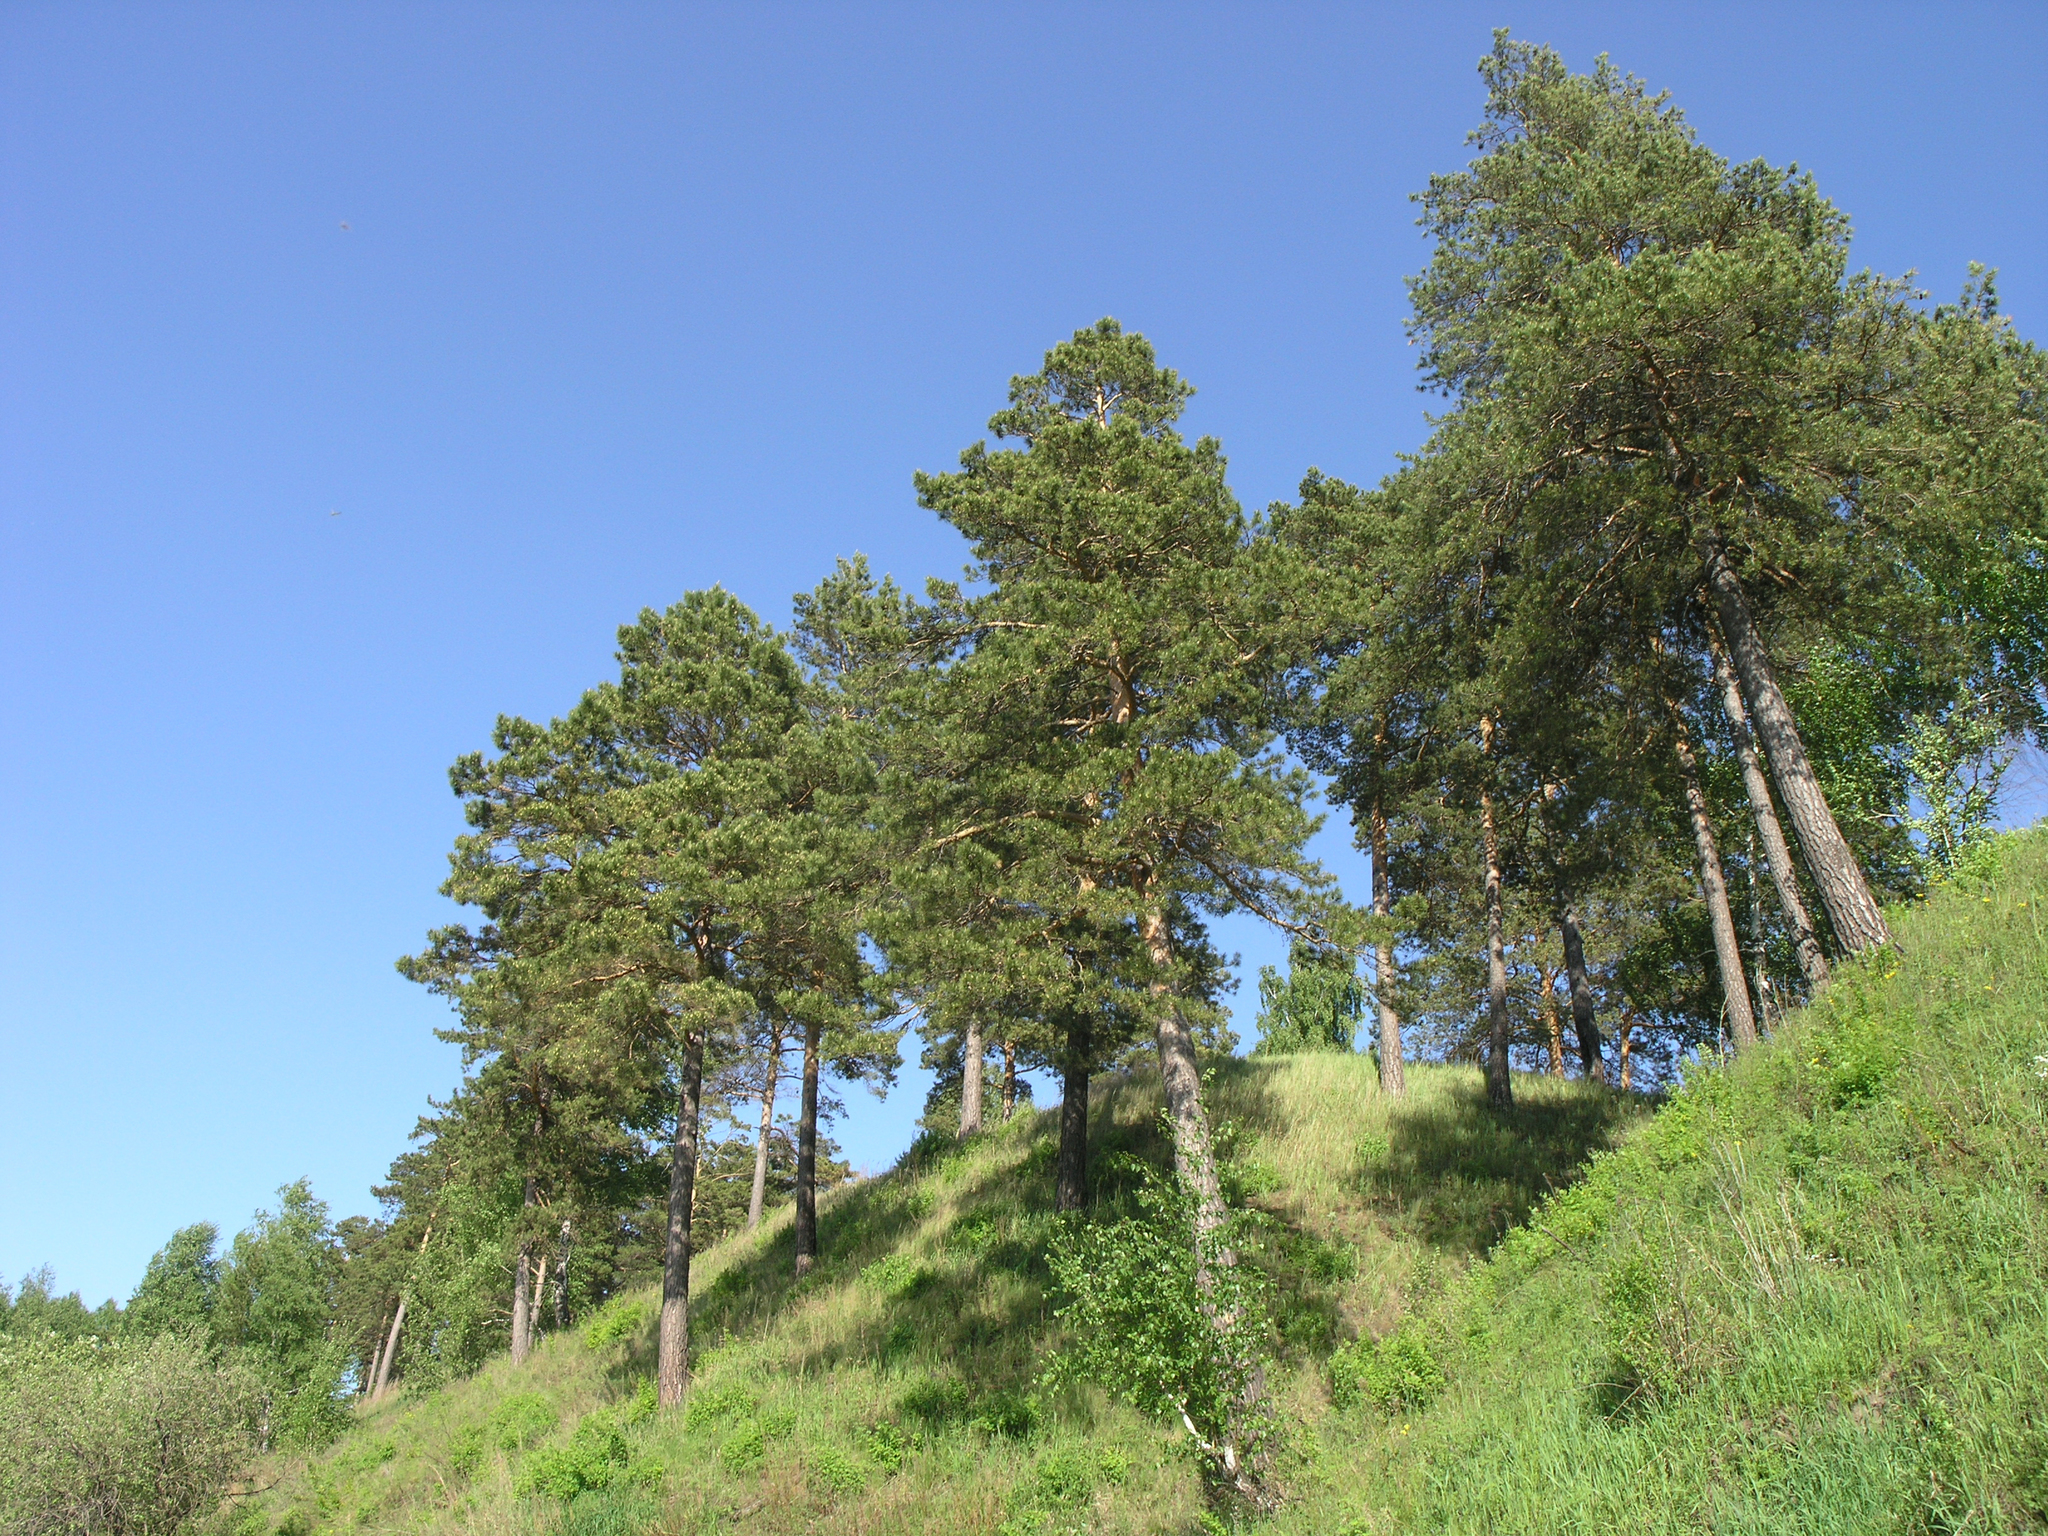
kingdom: Plantae
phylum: Tracheophyta
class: Pinopsida
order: Pinales
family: Pinaceae
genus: Pinus
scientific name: Pinus sylvestris
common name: Scots pine
